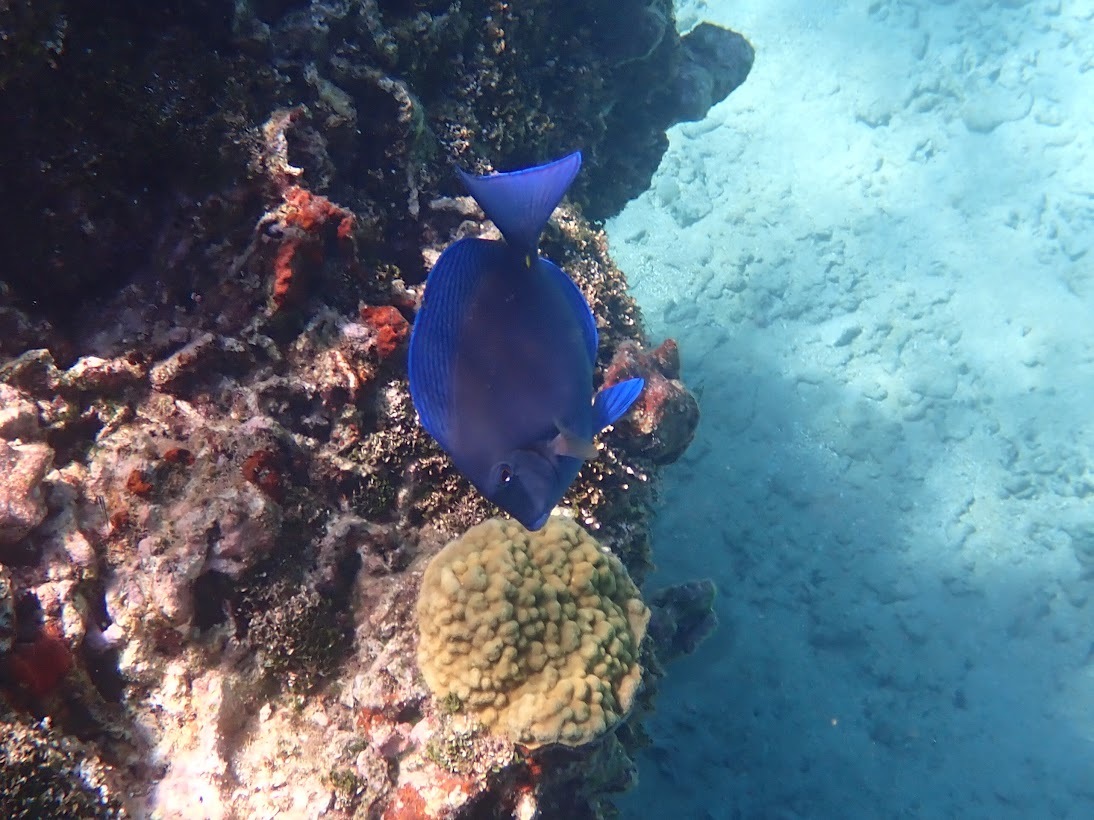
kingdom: Animalia
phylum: Chordata
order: Perciformes
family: Acanthuridae
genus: Acanthurus
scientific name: Acanthurus coeruleus
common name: Blue tang
